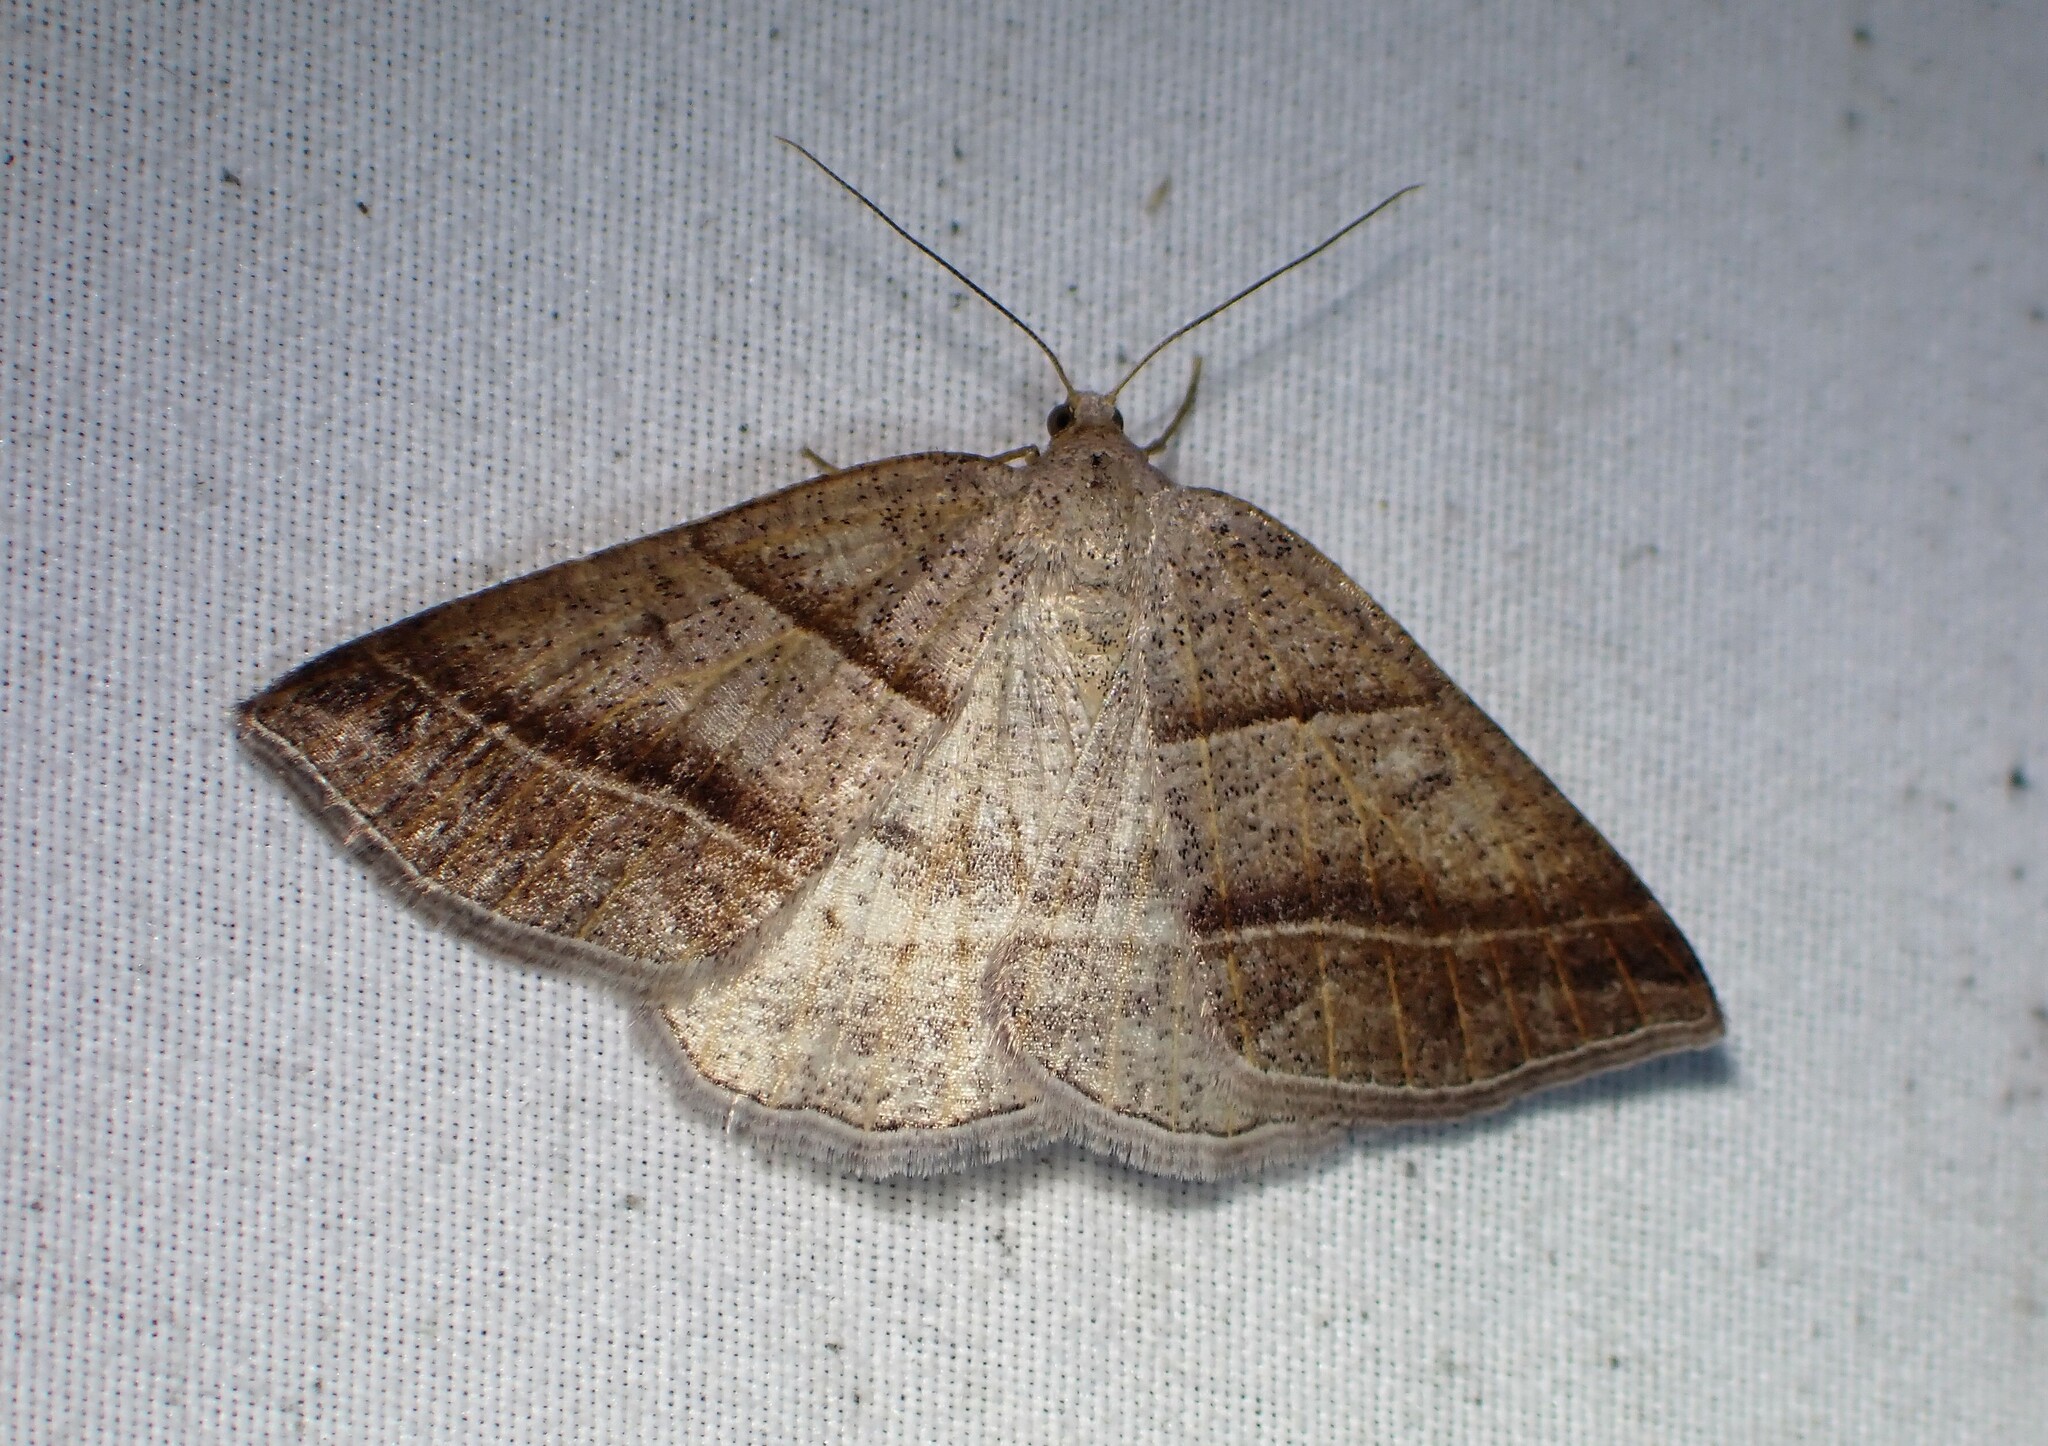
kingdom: Animalia
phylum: Arthropoda
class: Insecta
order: Lepidoptera
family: Pterophoridae
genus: Pterophorus
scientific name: Pterophorus Petrophora subaequaria
